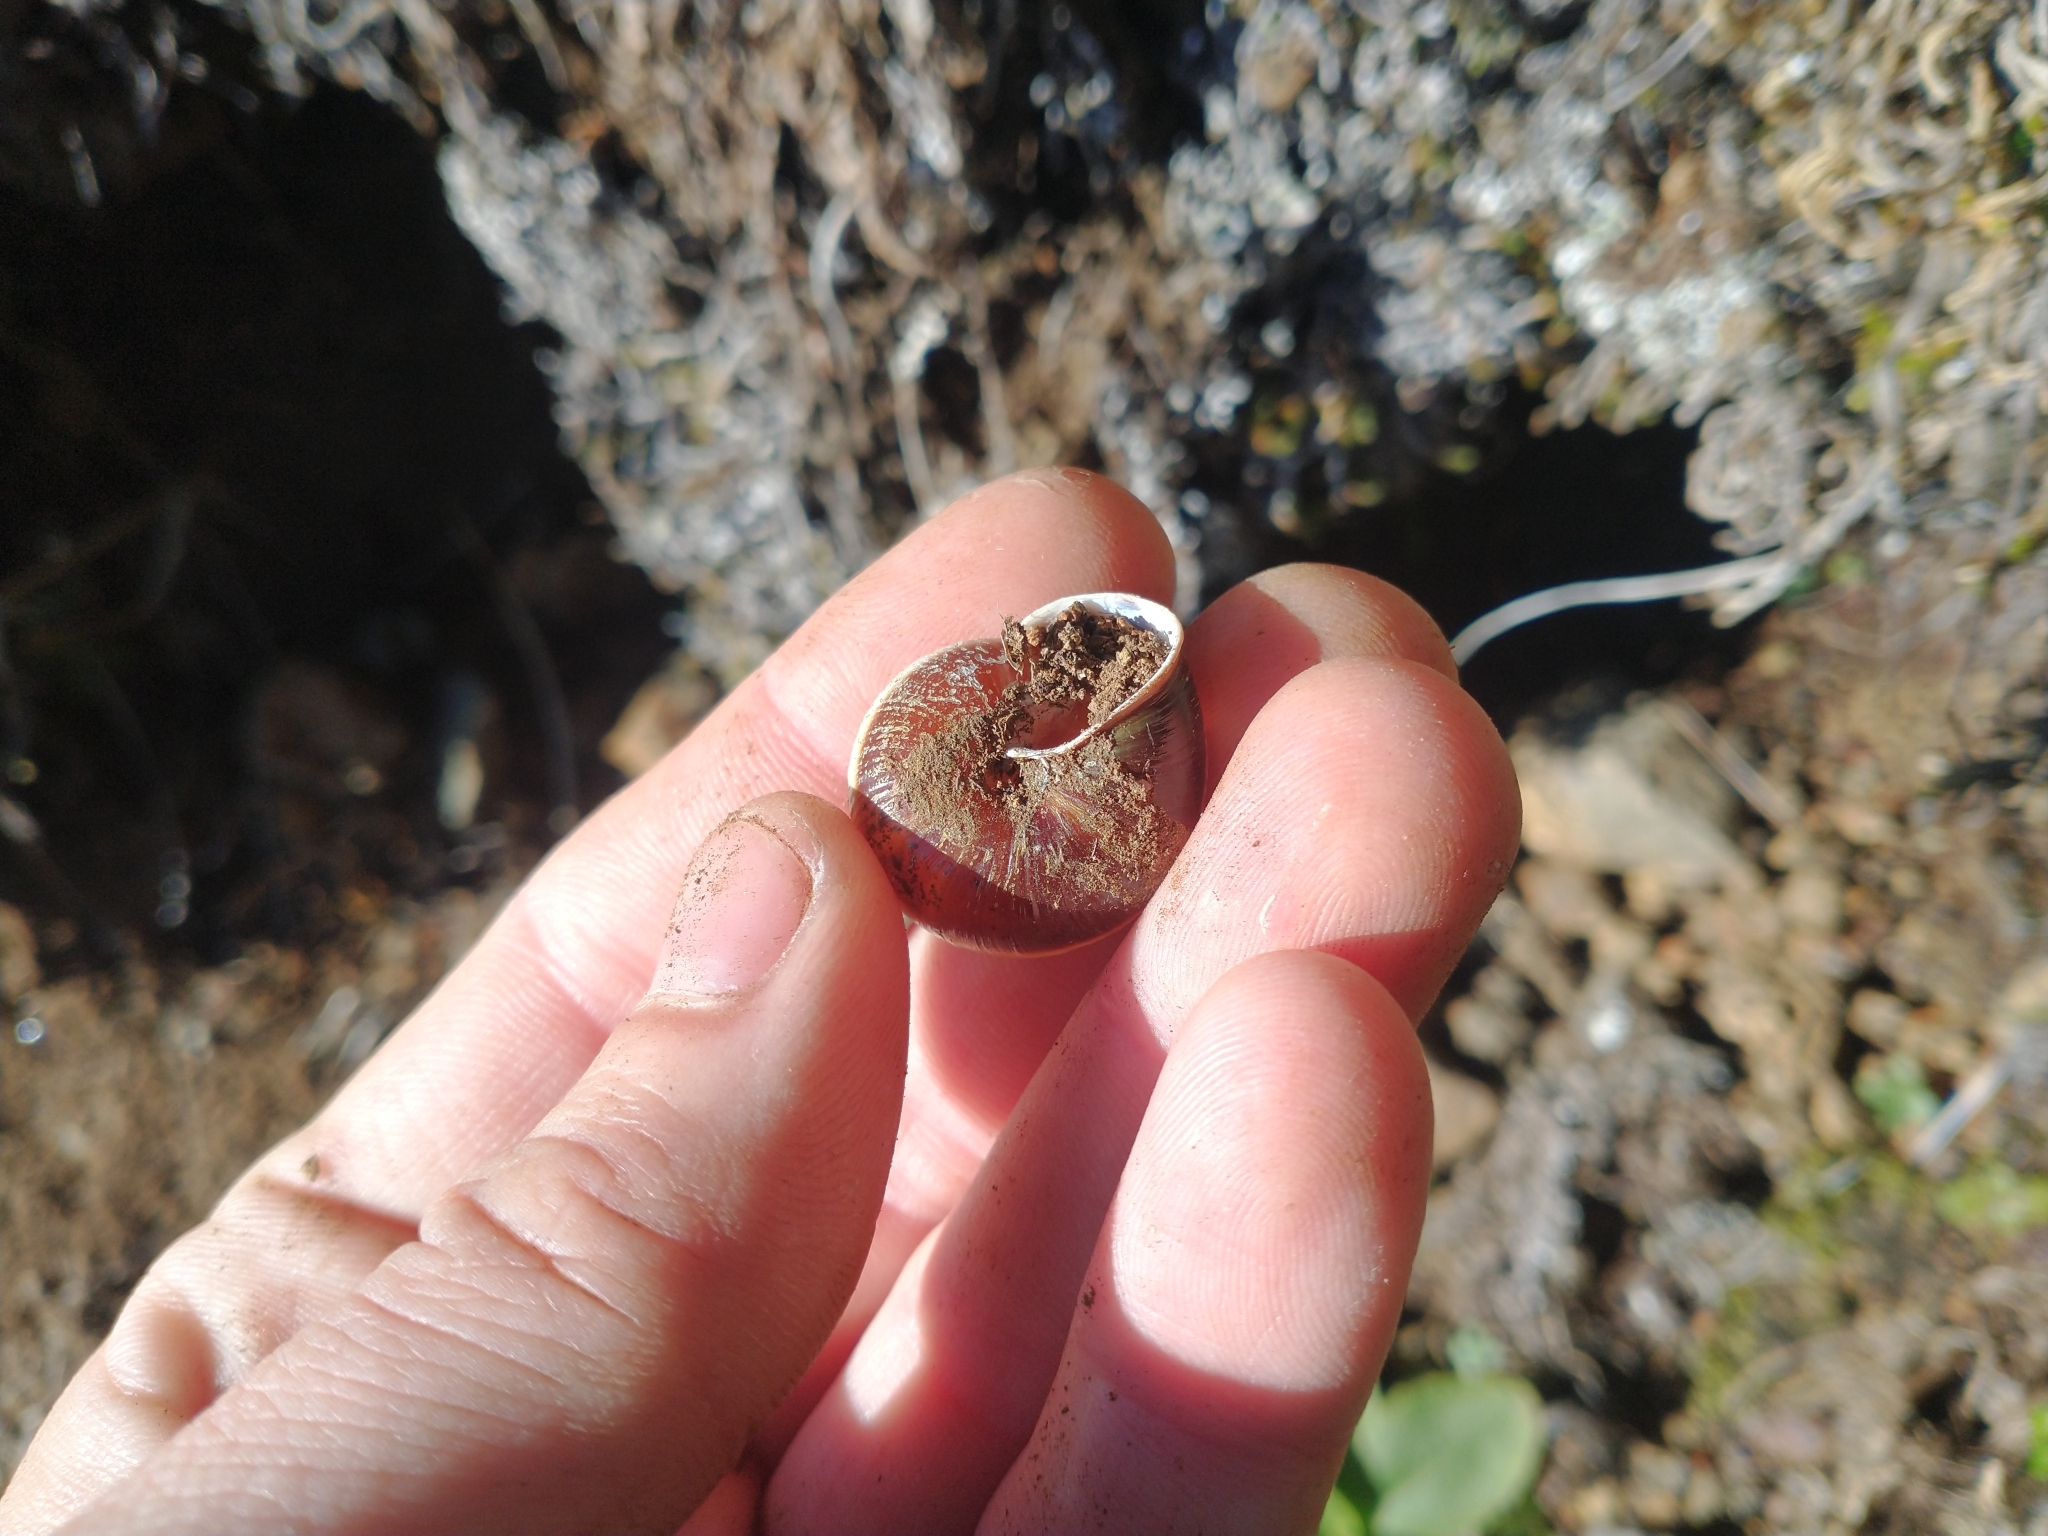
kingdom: Animalia
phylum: Mollusca
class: Gastropoda
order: Stylommatophora
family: Xanthonychidae
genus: Monadenia
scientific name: Monadenia fidelis
